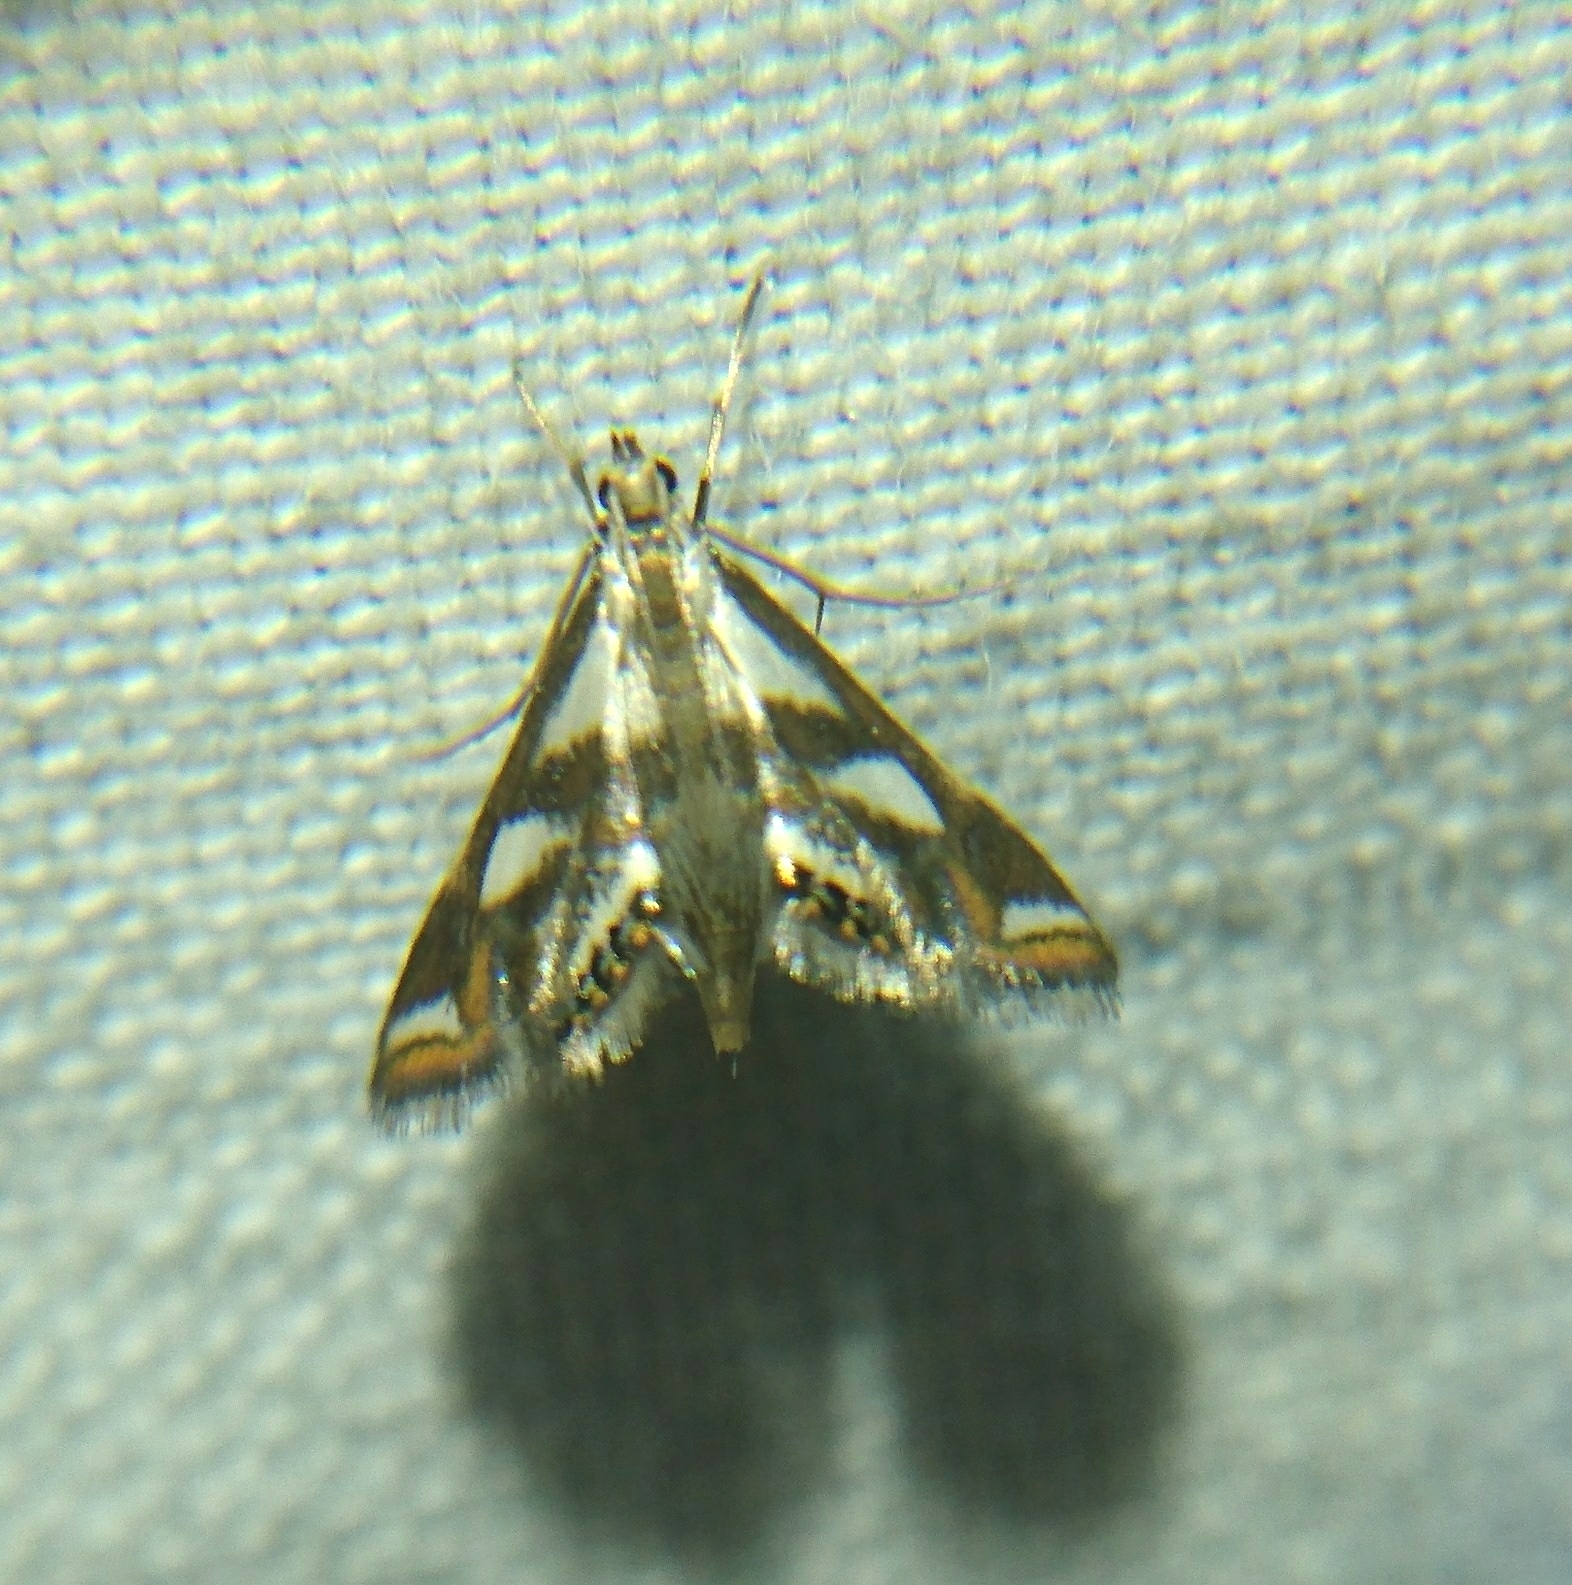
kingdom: Animalia
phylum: Arthropoda
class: Insecta
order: Lepidoptera
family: Crambidae
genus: Chrysendeton
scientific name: Chrysendeton imitabilis
